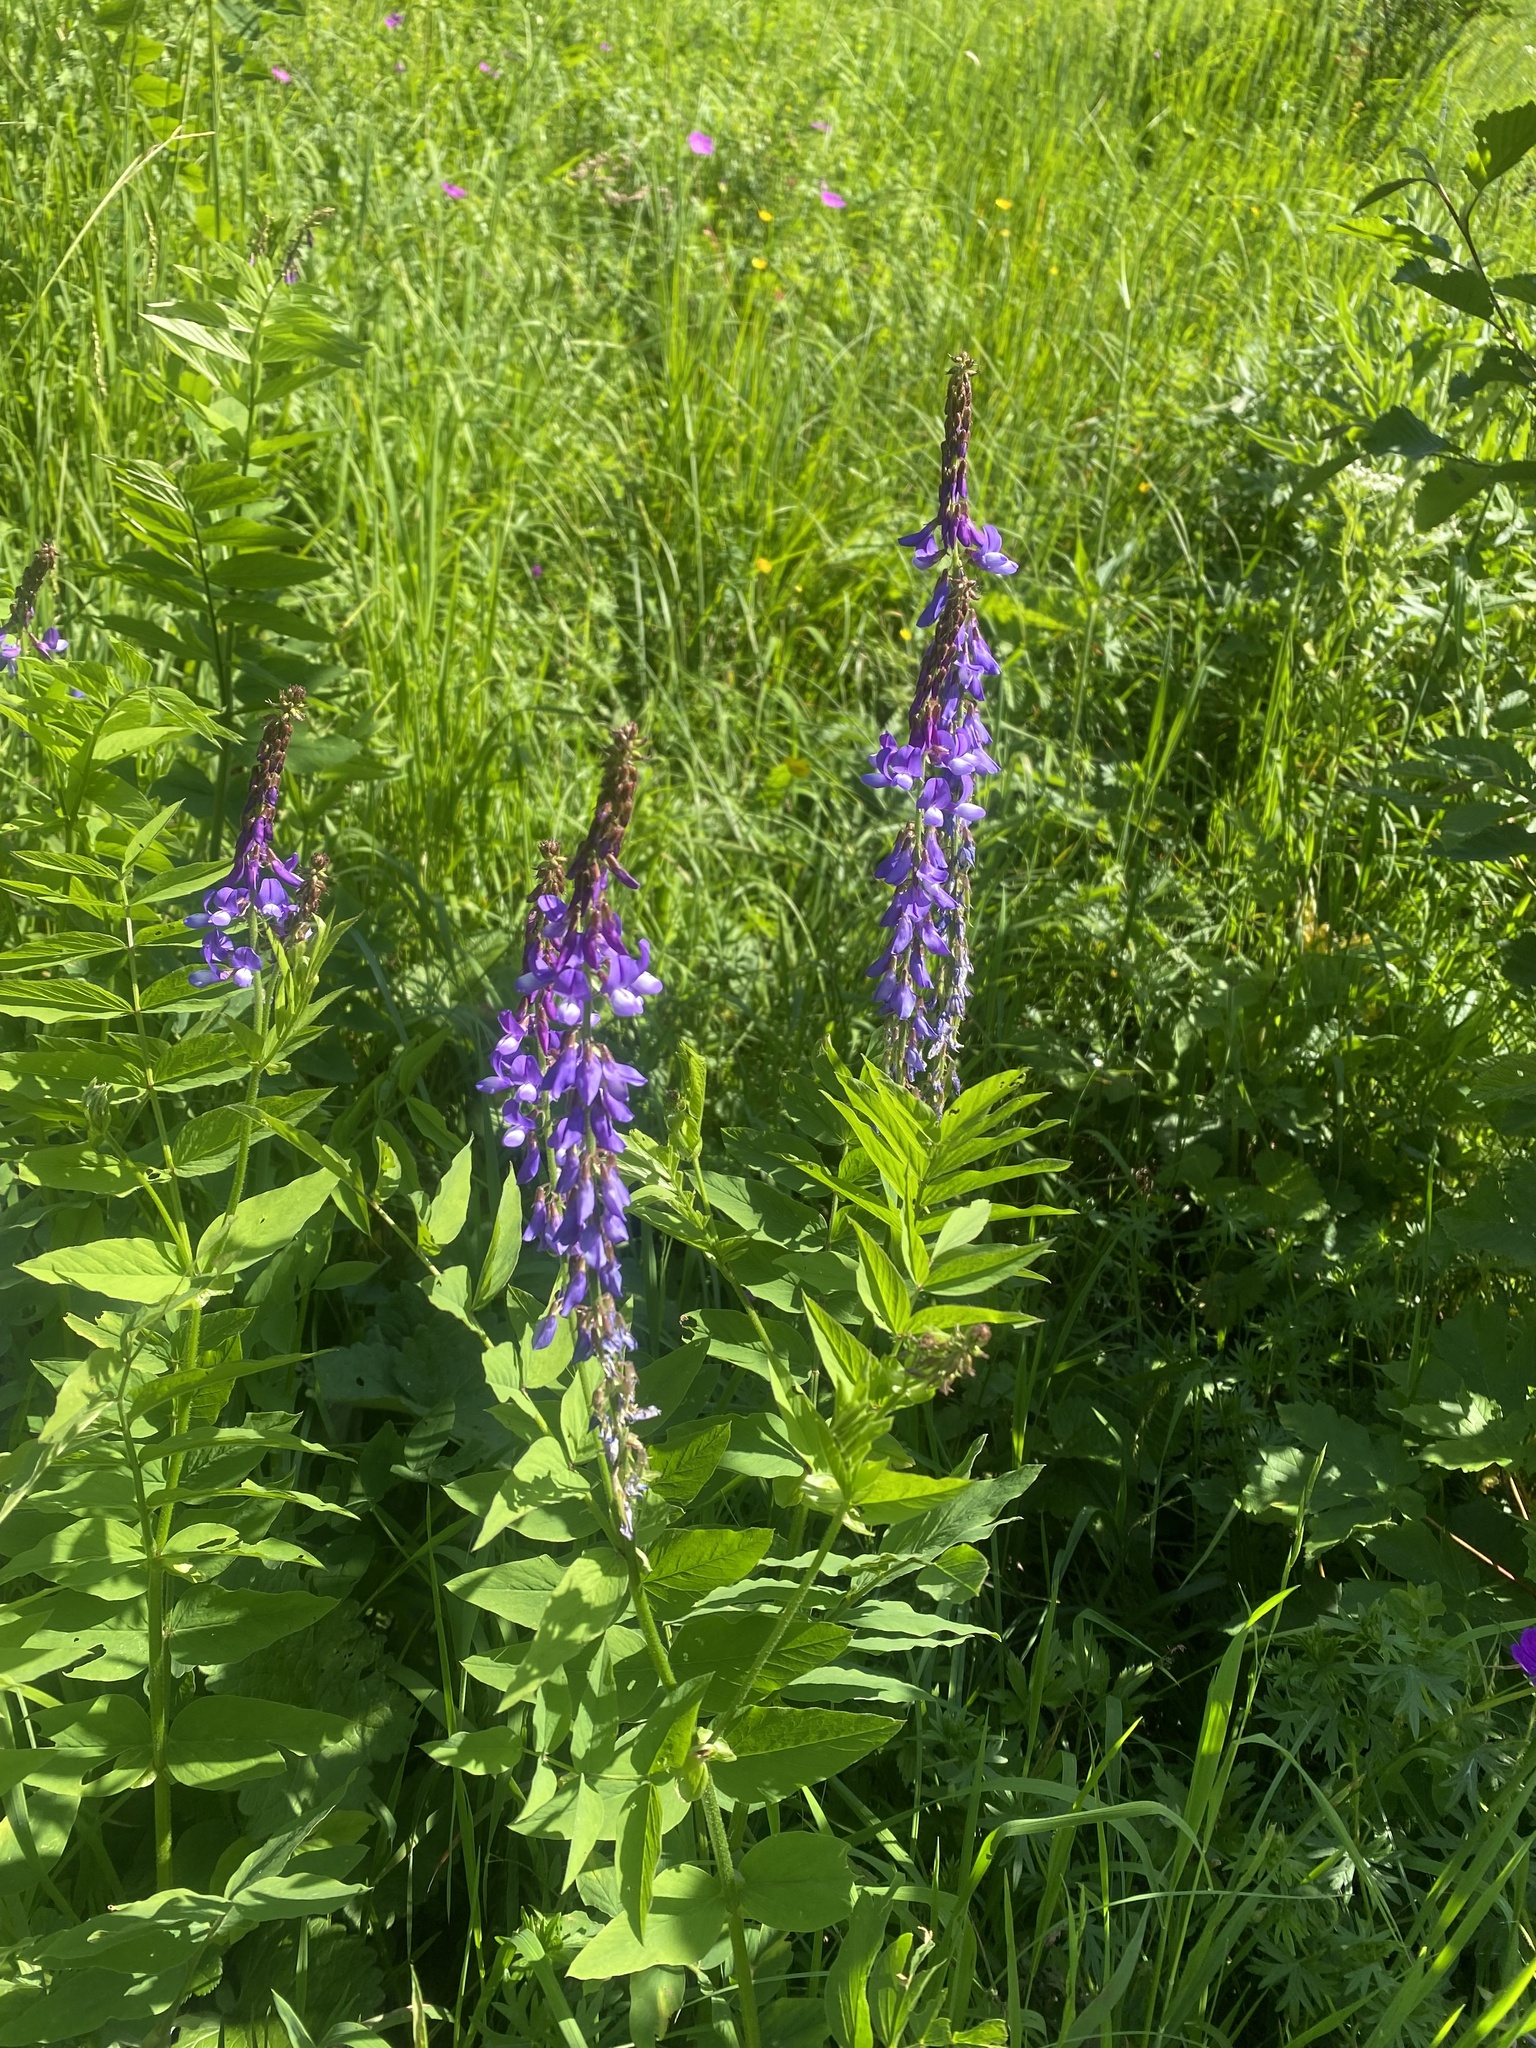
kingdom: Plantae
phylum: Tracheophyta
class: Magnoliopsida
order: Fabales
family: Fabaceae
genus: Galega
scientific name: Galega orientalis
